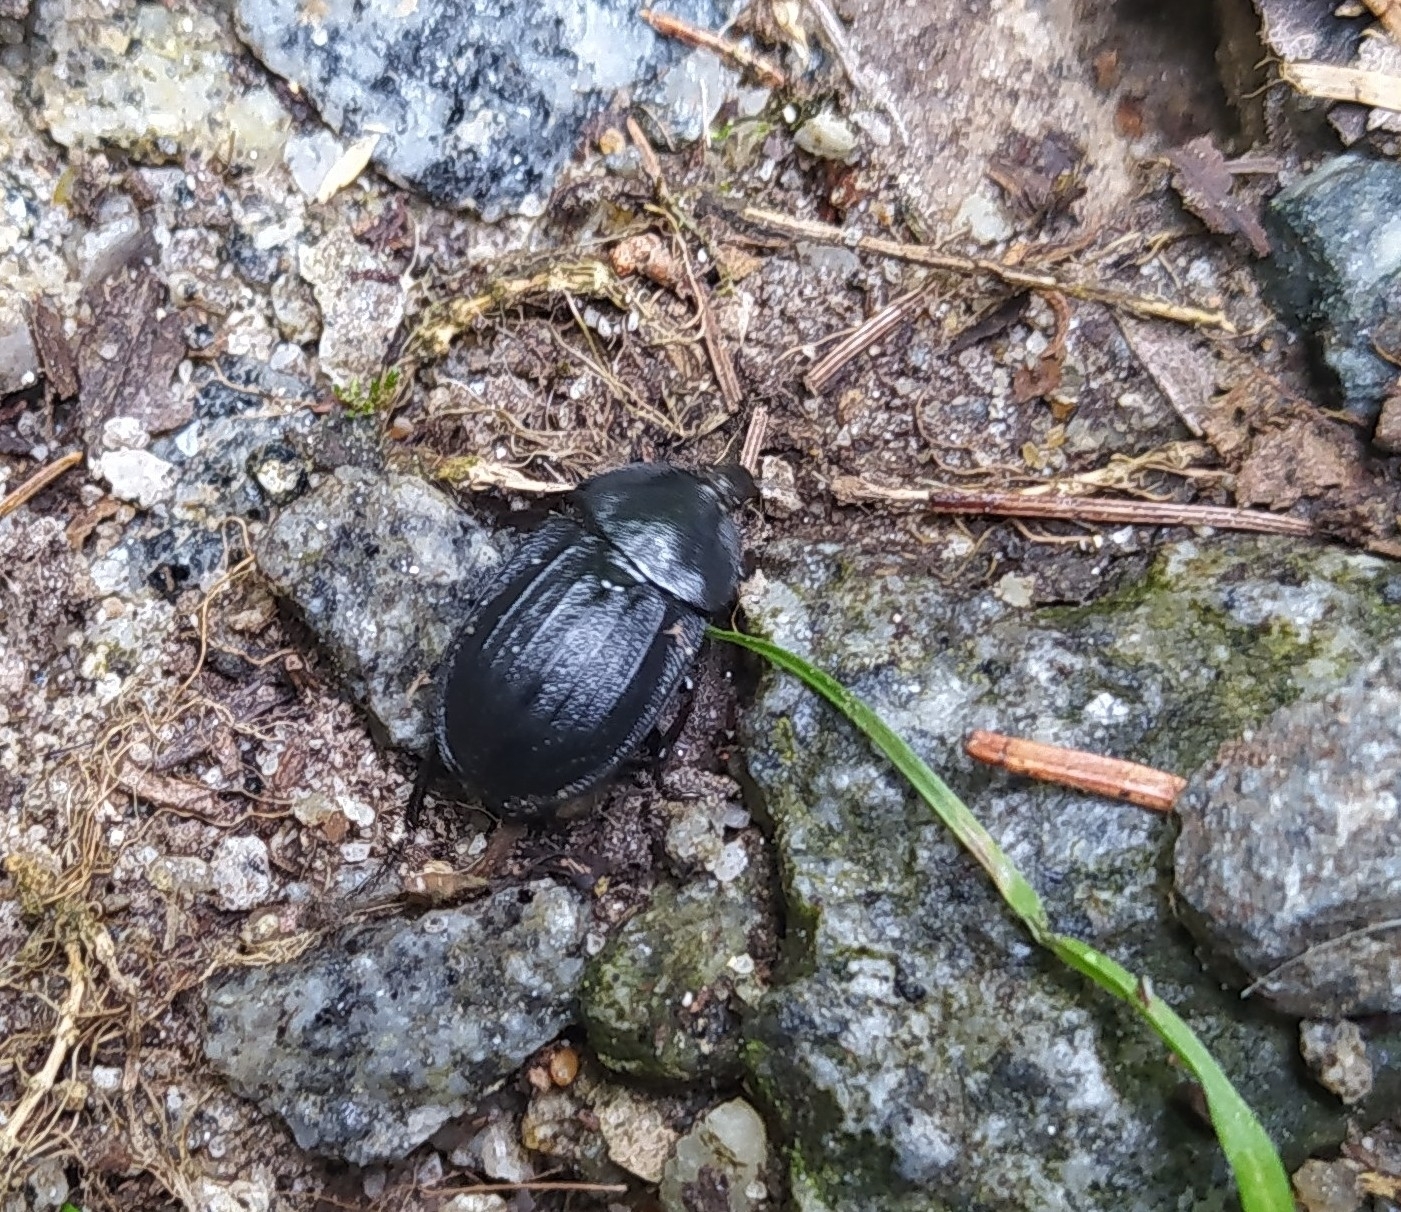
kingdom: Animalia
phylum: Arthropoda
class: Insecta
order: Coleoptera
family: Staphylinidae
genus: Silpha
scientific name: Silpha atrata
